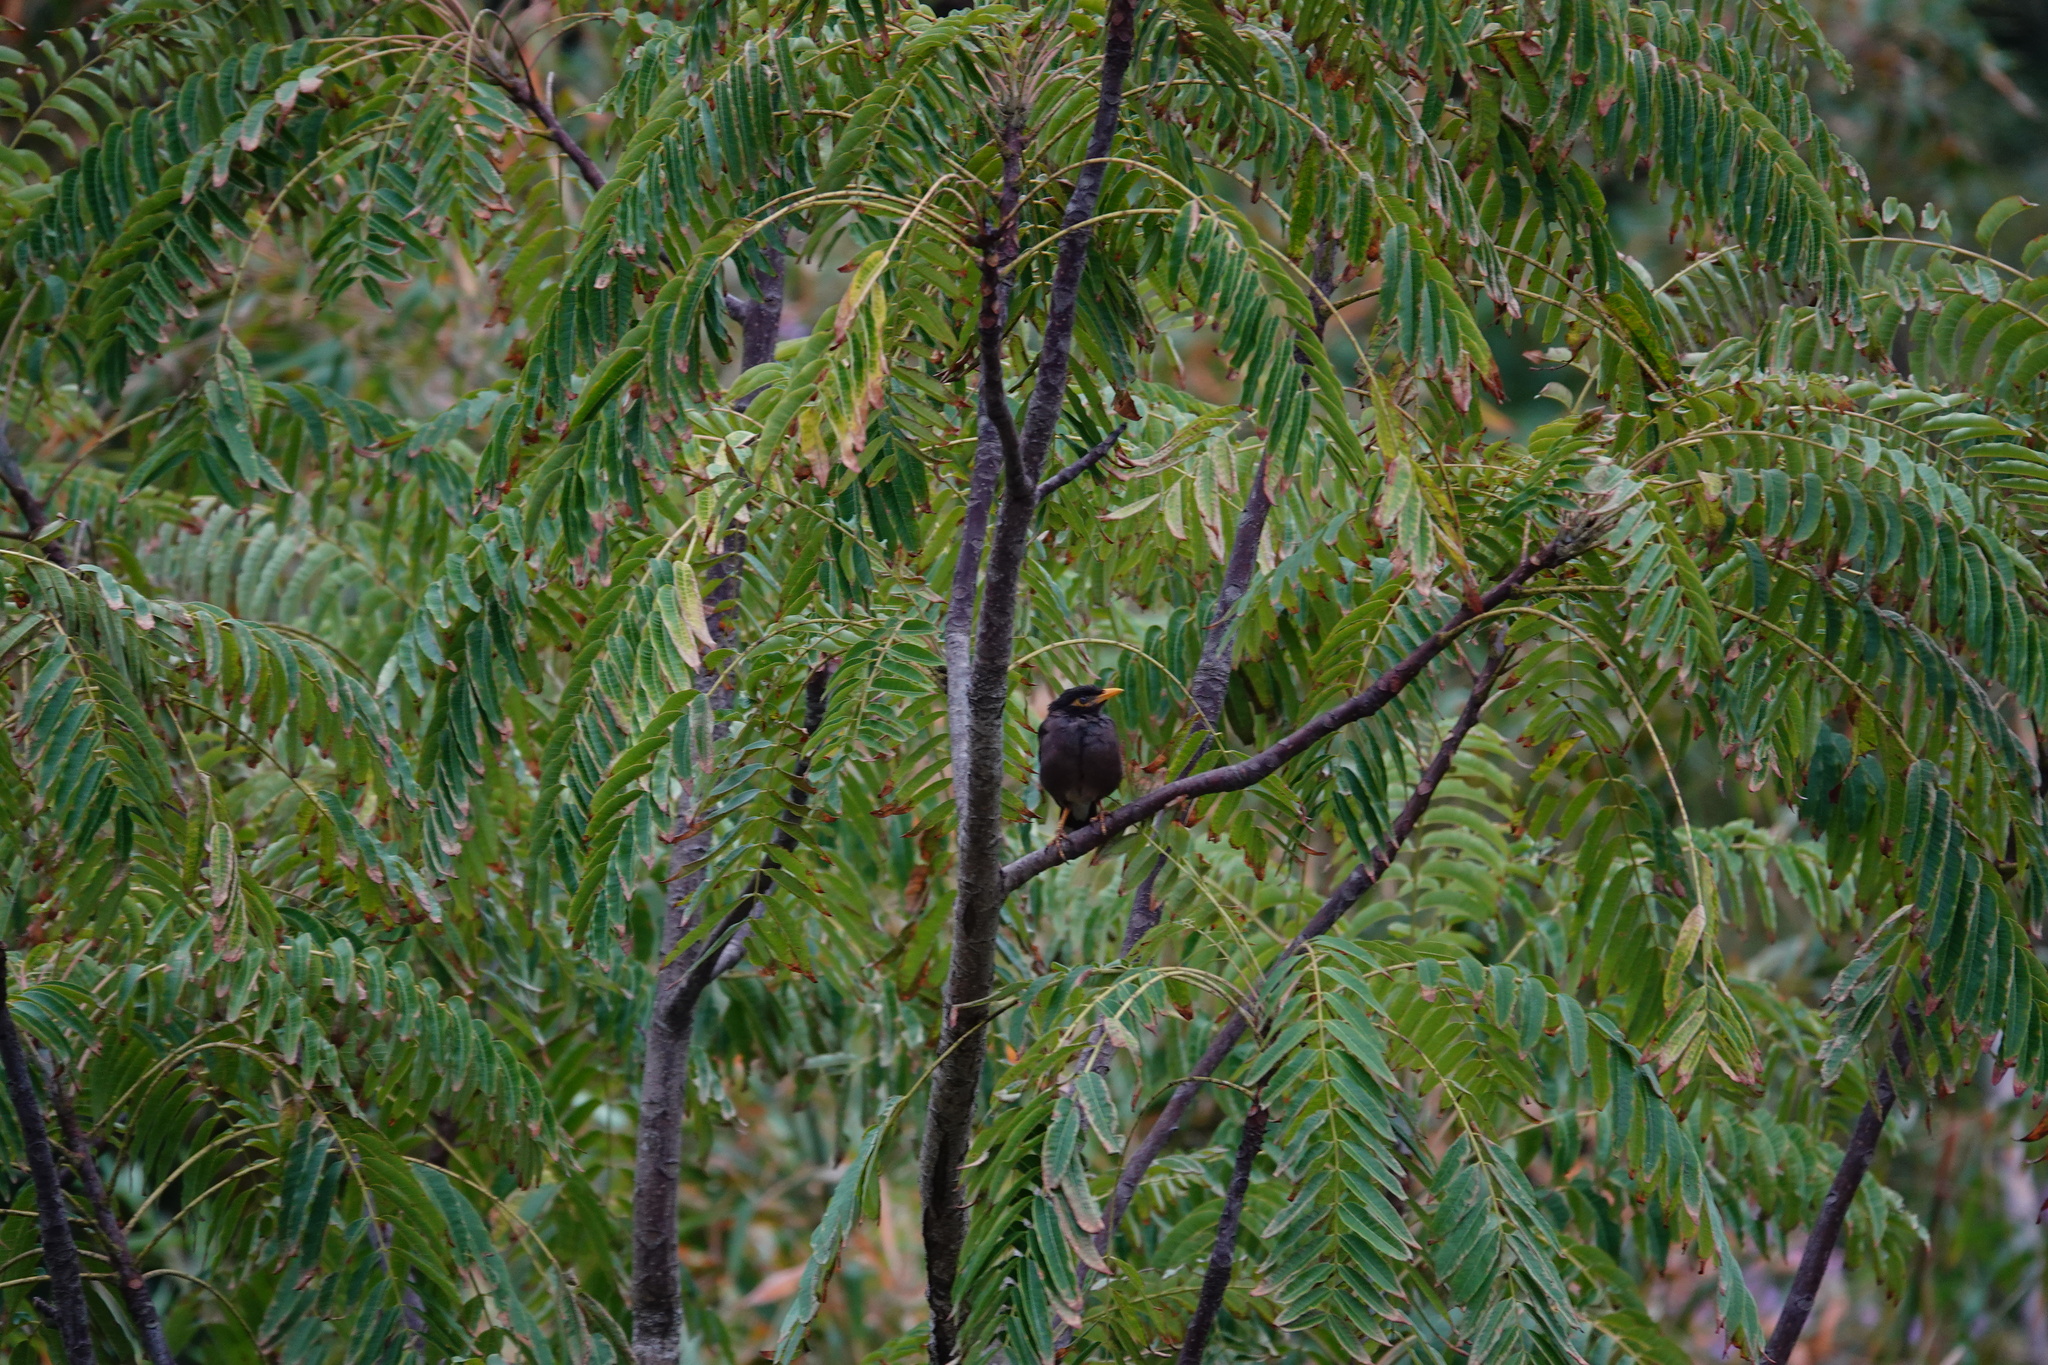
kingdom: Animalia
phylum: Chordata
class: Aves
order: Passeriformes
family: Sturnidae
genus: Acridotheres
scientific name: Acridotheres tristis
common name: Common myna
